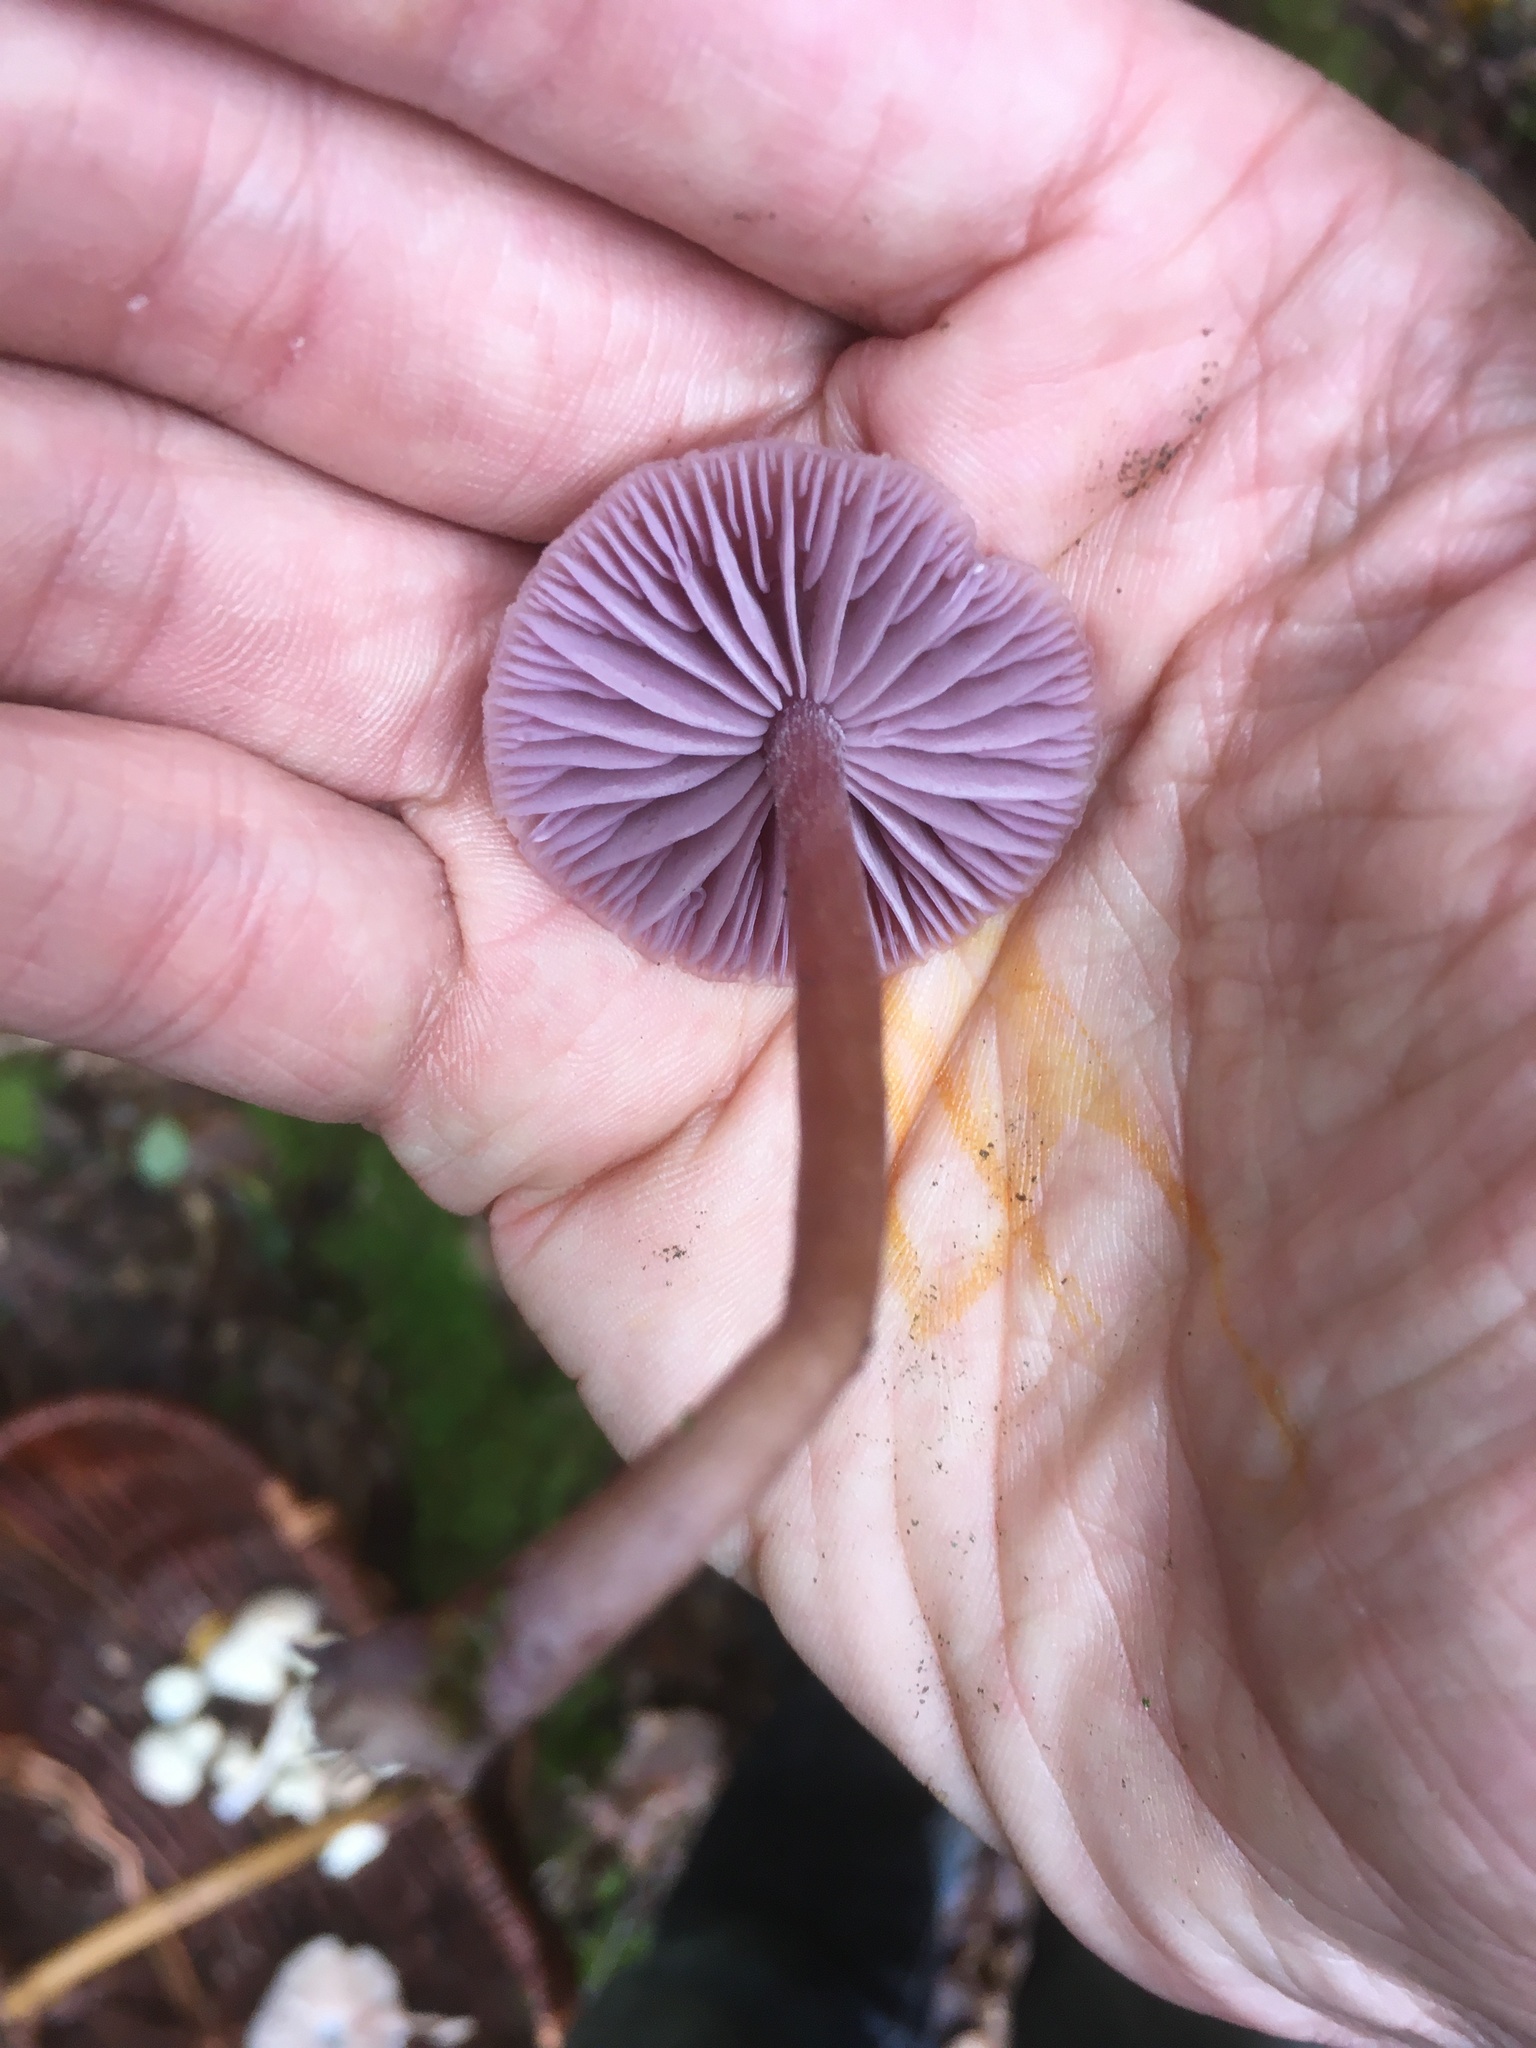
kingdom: Fungi
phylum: Basidiomycota
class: Agaricomycetes
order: Agaricales
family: Hydnangiaceae
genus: Laccaria
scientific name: Laccaria amethystina
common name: Amethyst deceiver
